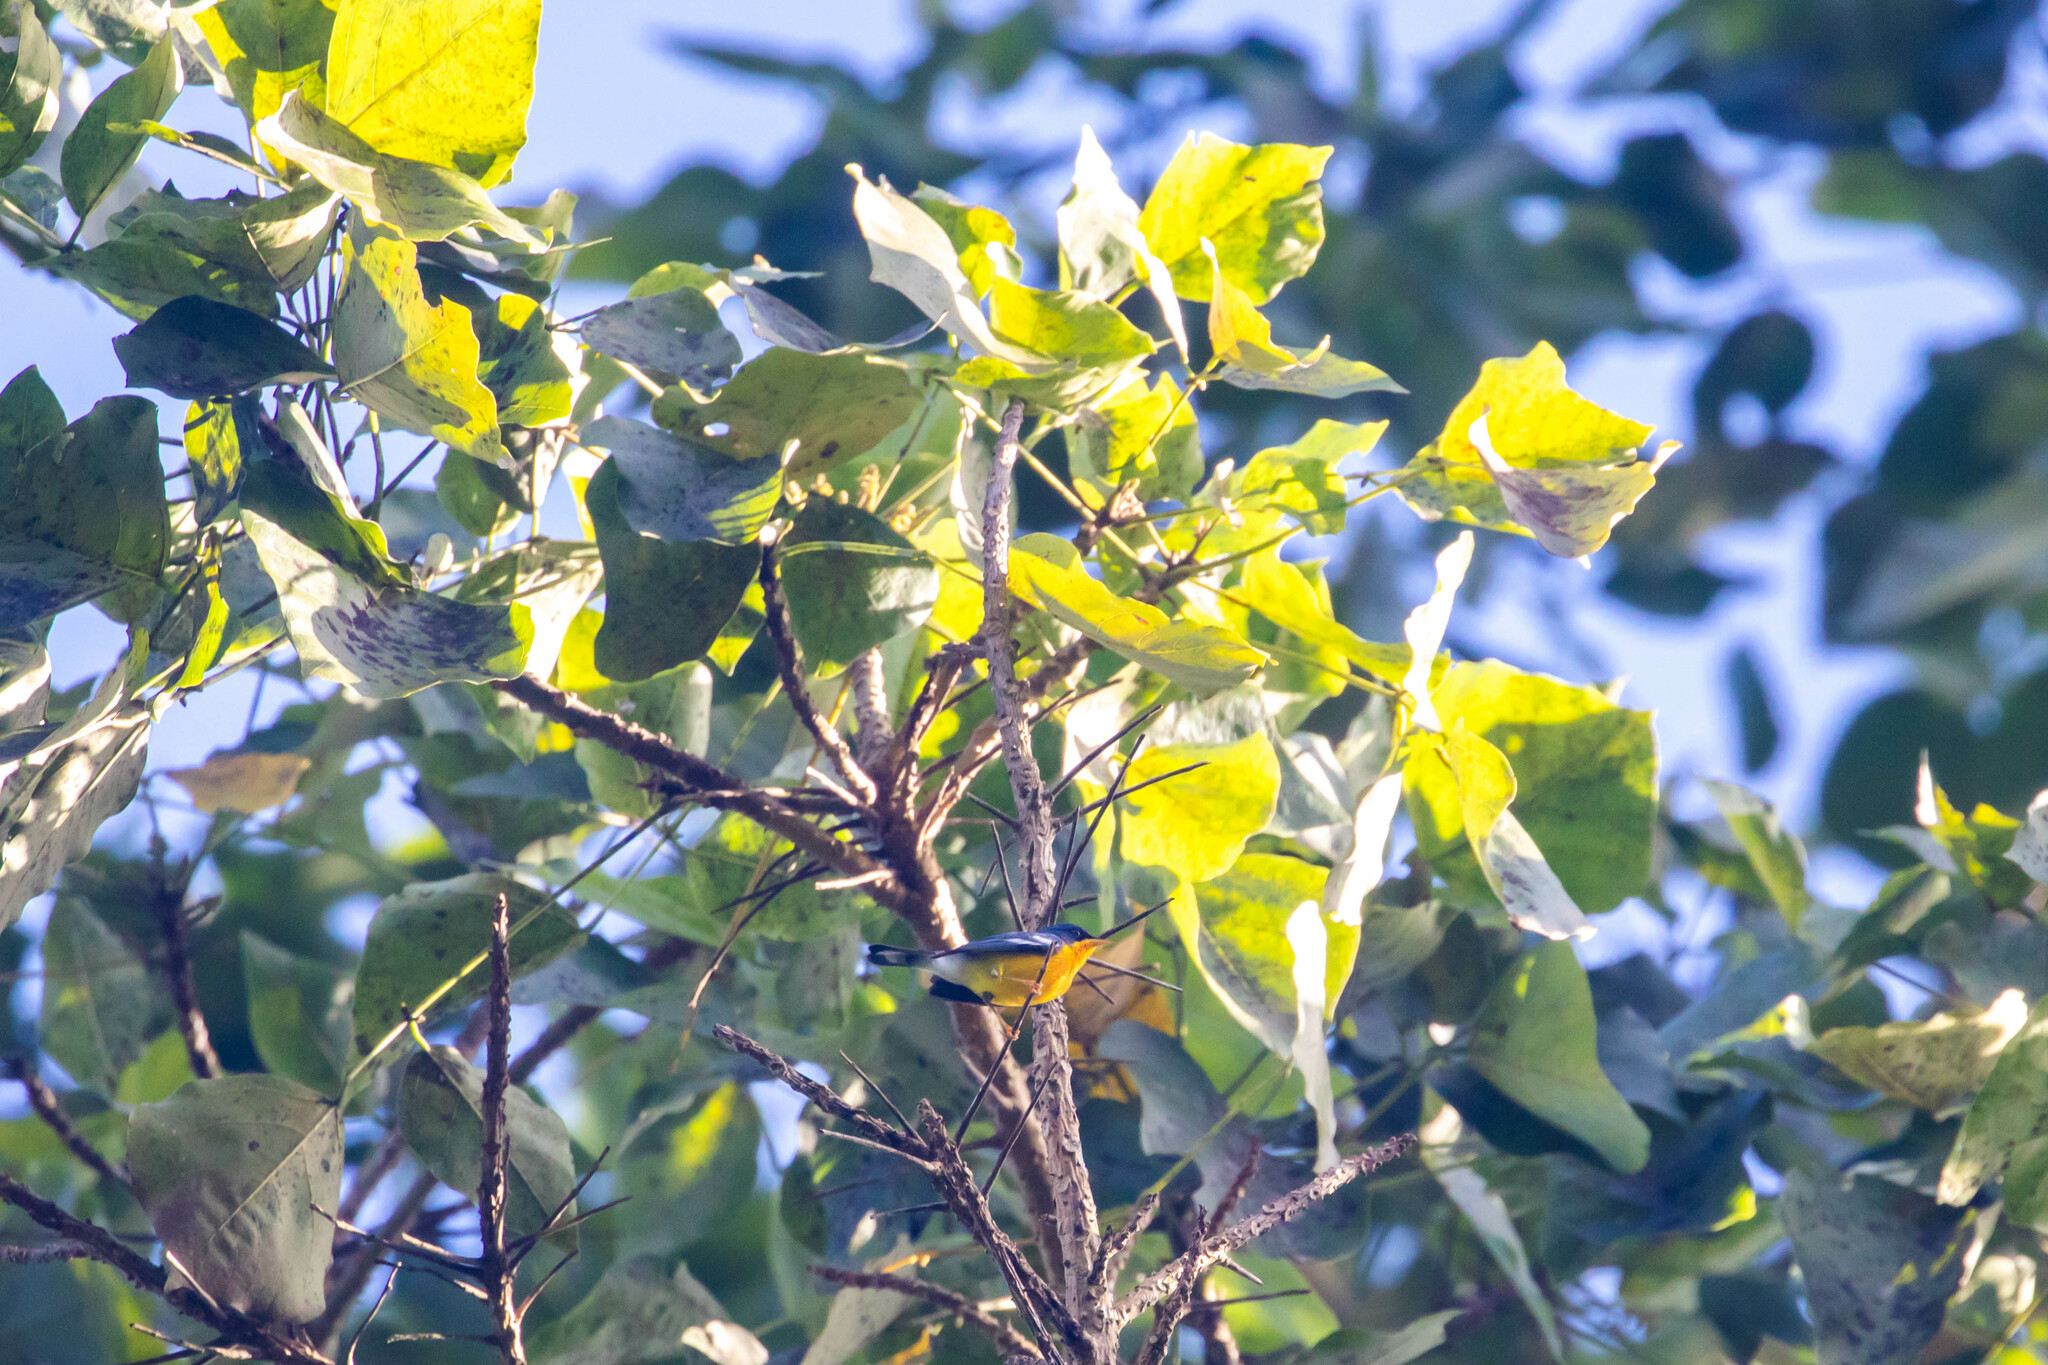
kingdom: Animalia
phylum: Chordata
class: Aves
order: Passeriformes
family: Parulidae
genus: Setophaga
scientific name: Setophaga pitiayumi
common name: Tropical parula
